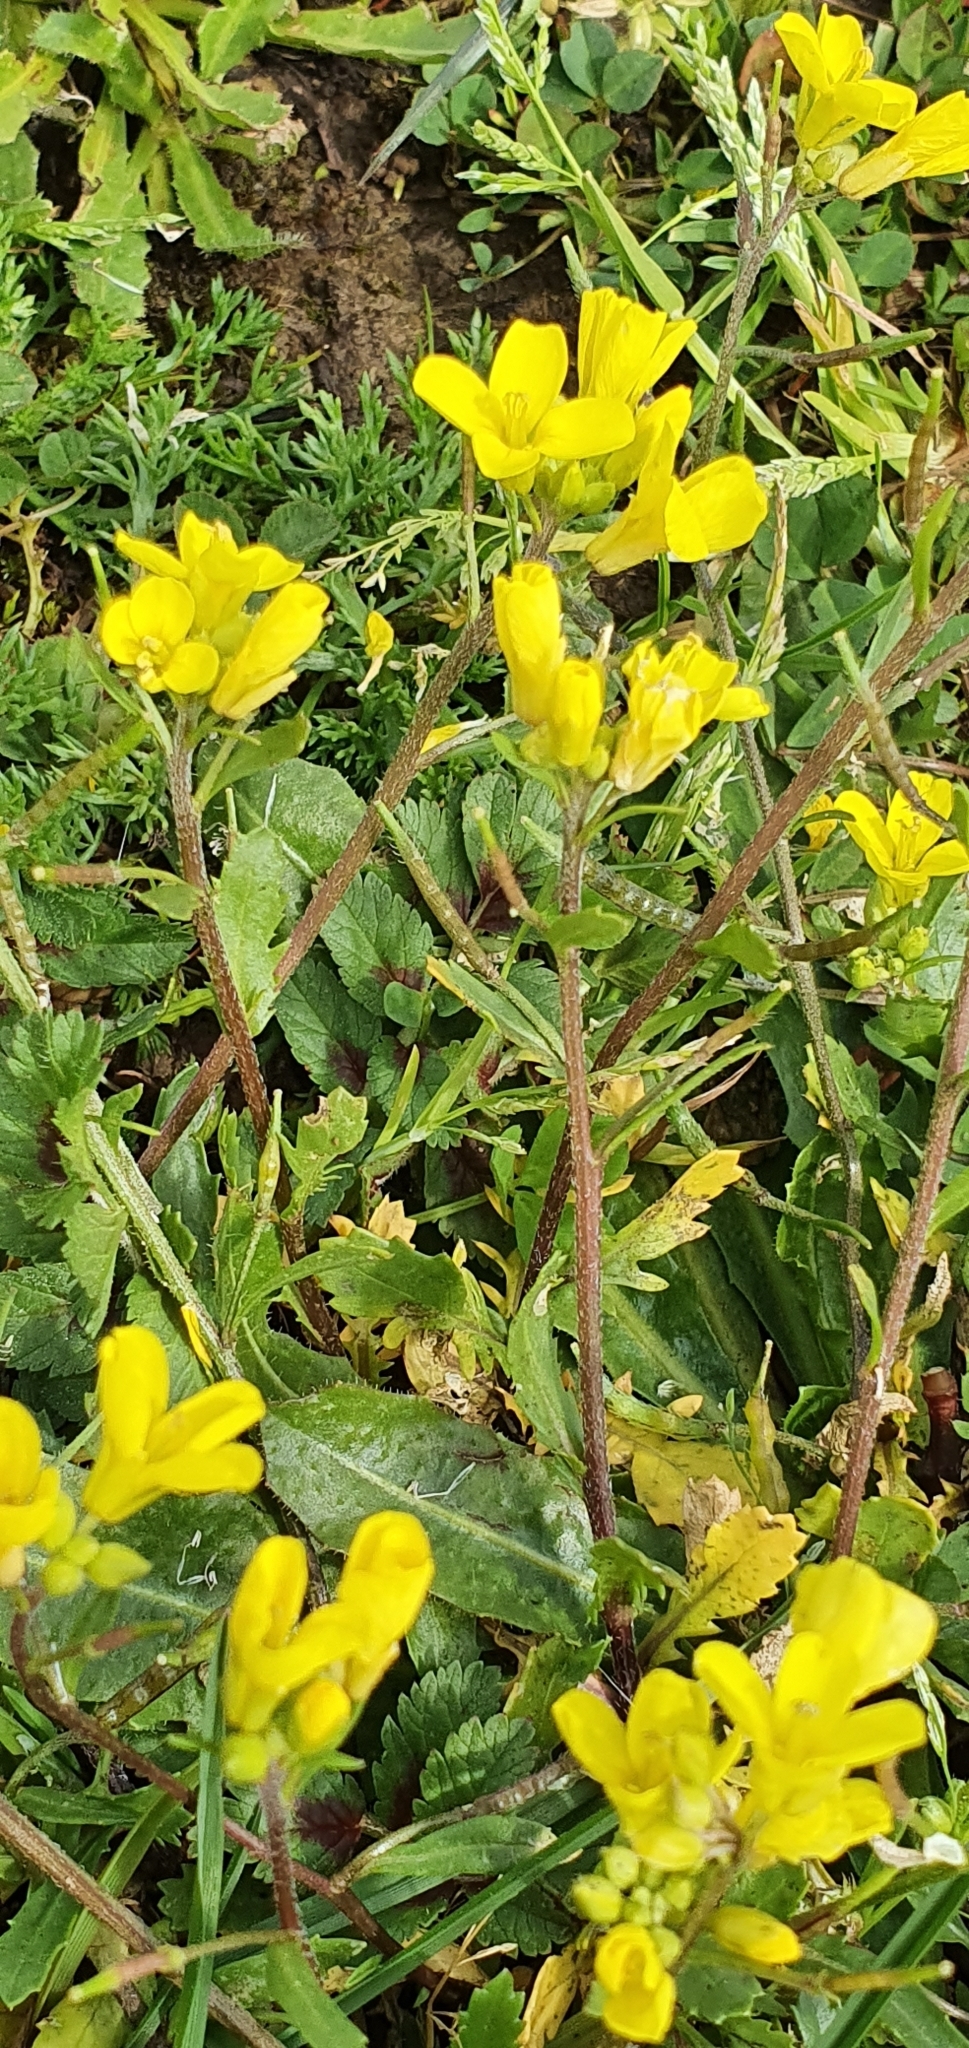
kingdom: Plantae
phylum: Tracheophyta
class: Magnoliopsida
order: Brassicales
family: Brassicaceae
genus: Brassica
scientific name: Brassica procumbens
